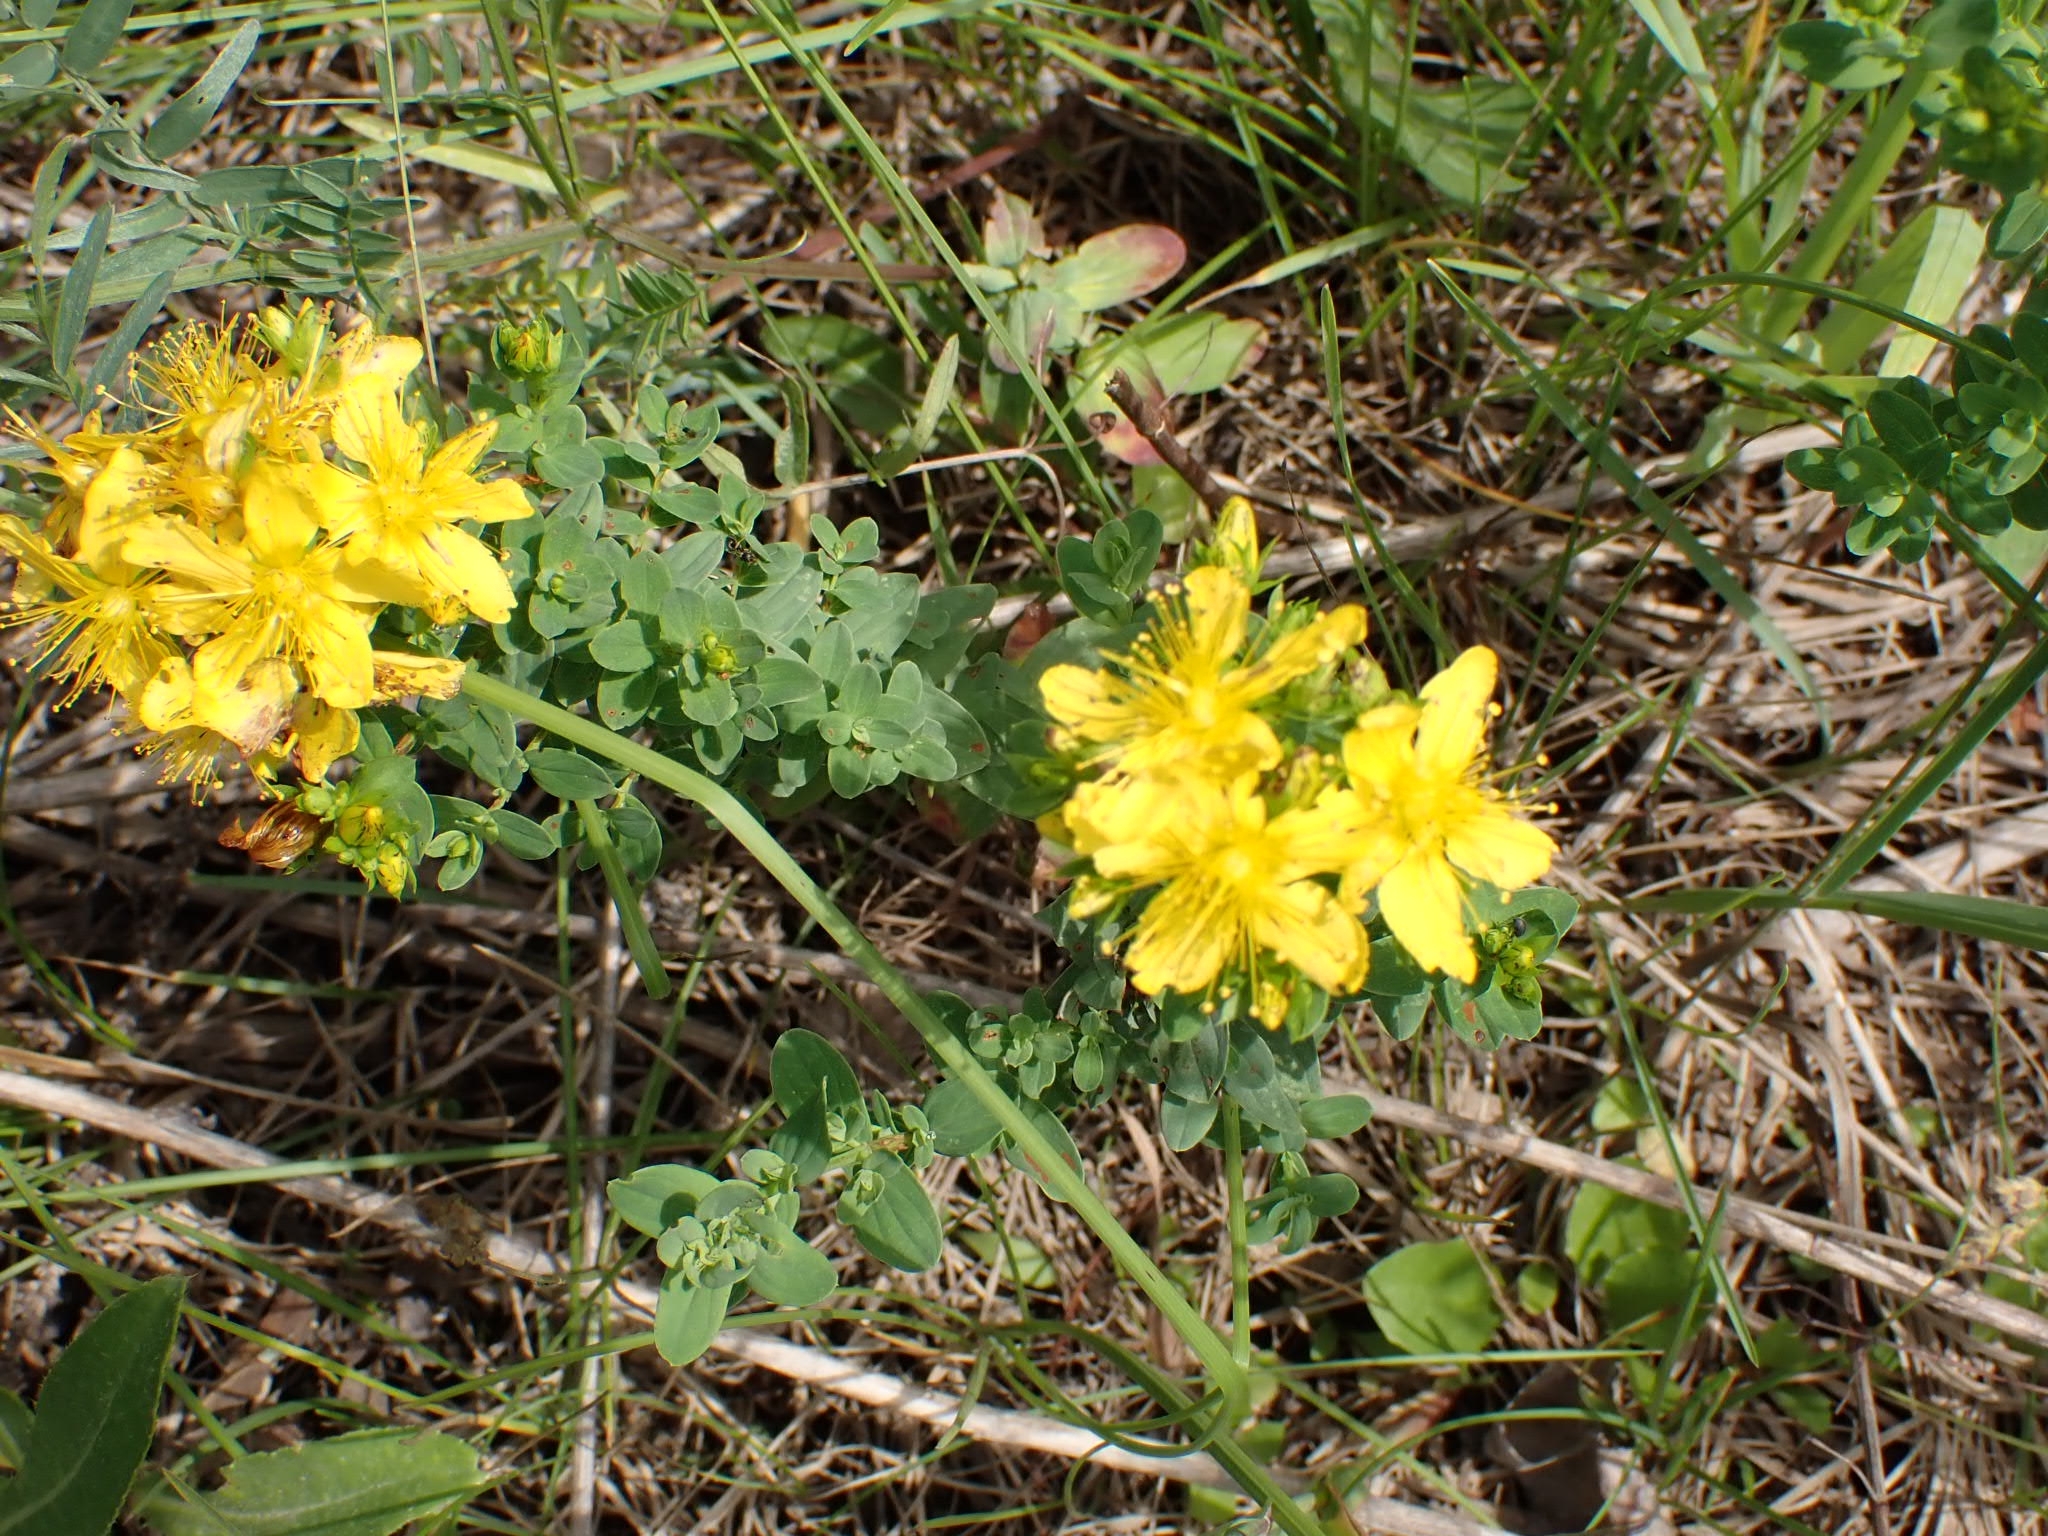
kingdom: Plantae
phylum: Tracheophyta
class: Magnoliopsida
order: Malpighiales
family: Hypericaceae
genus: Hypericum
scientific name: Hypericum perforatum
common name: Common st. johnswort
